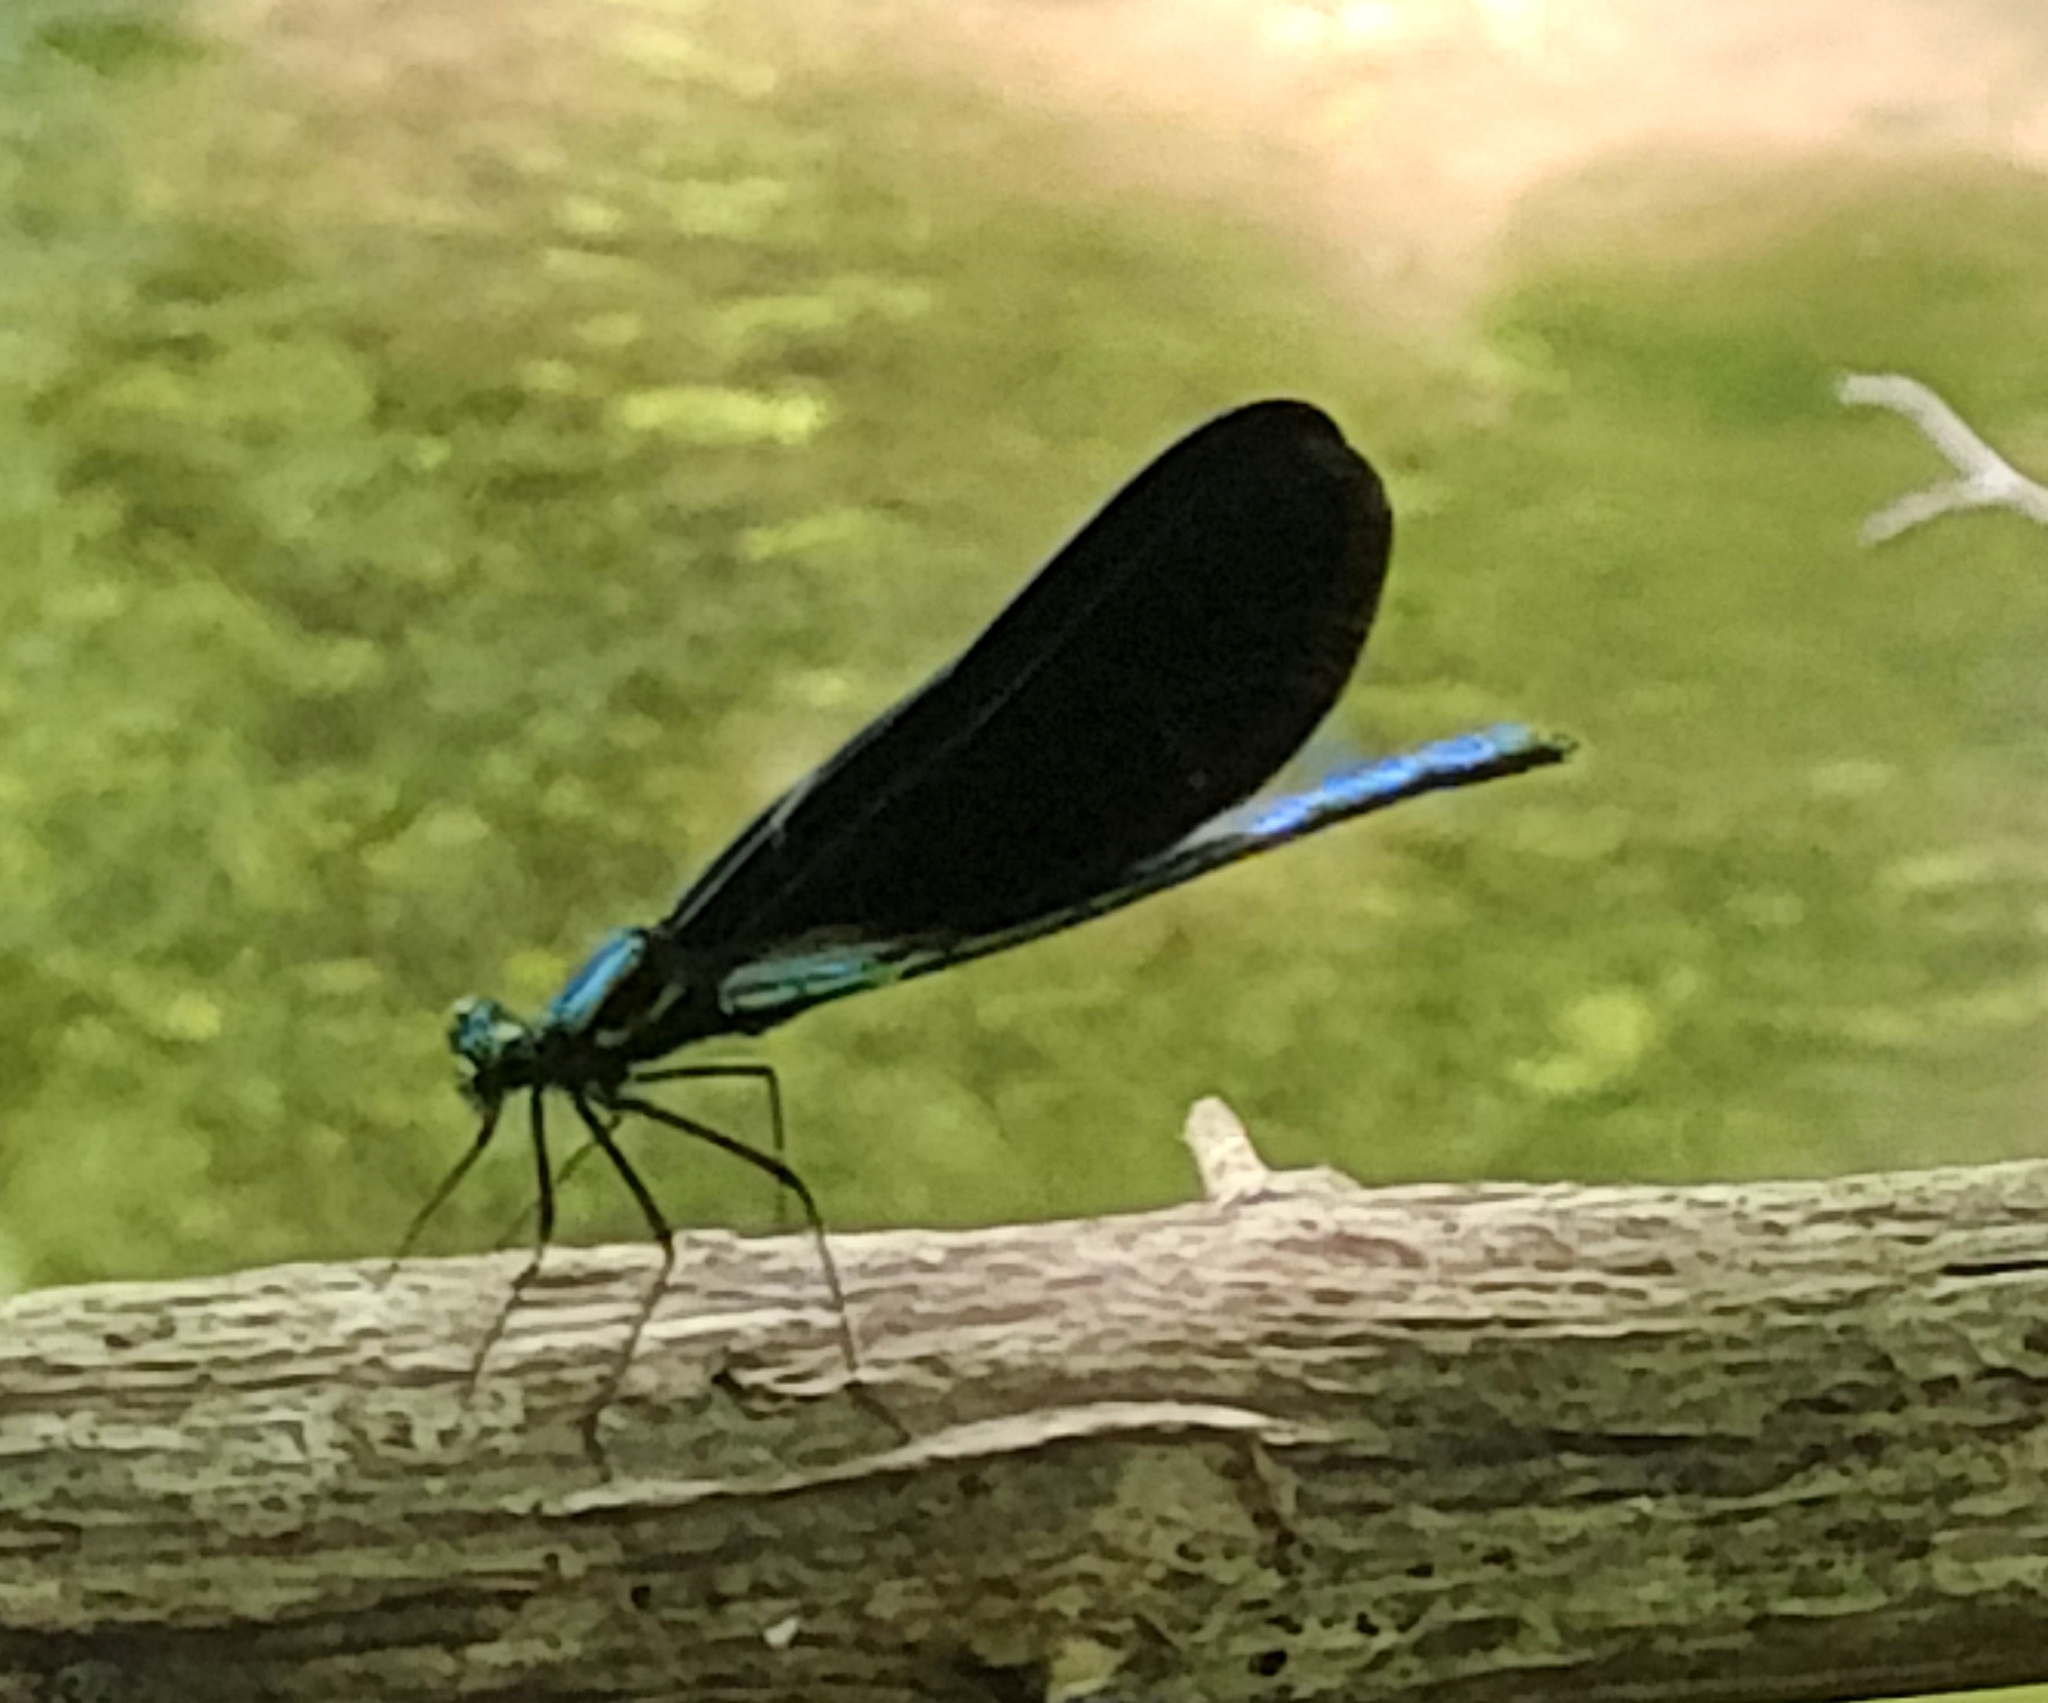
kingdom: Animalia
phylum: Arthropoda
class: Insecta
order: Odonata
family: Calopterygidae
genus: Calopteryx
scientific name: Calopteryx maculata
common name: Ebony jewelwing
